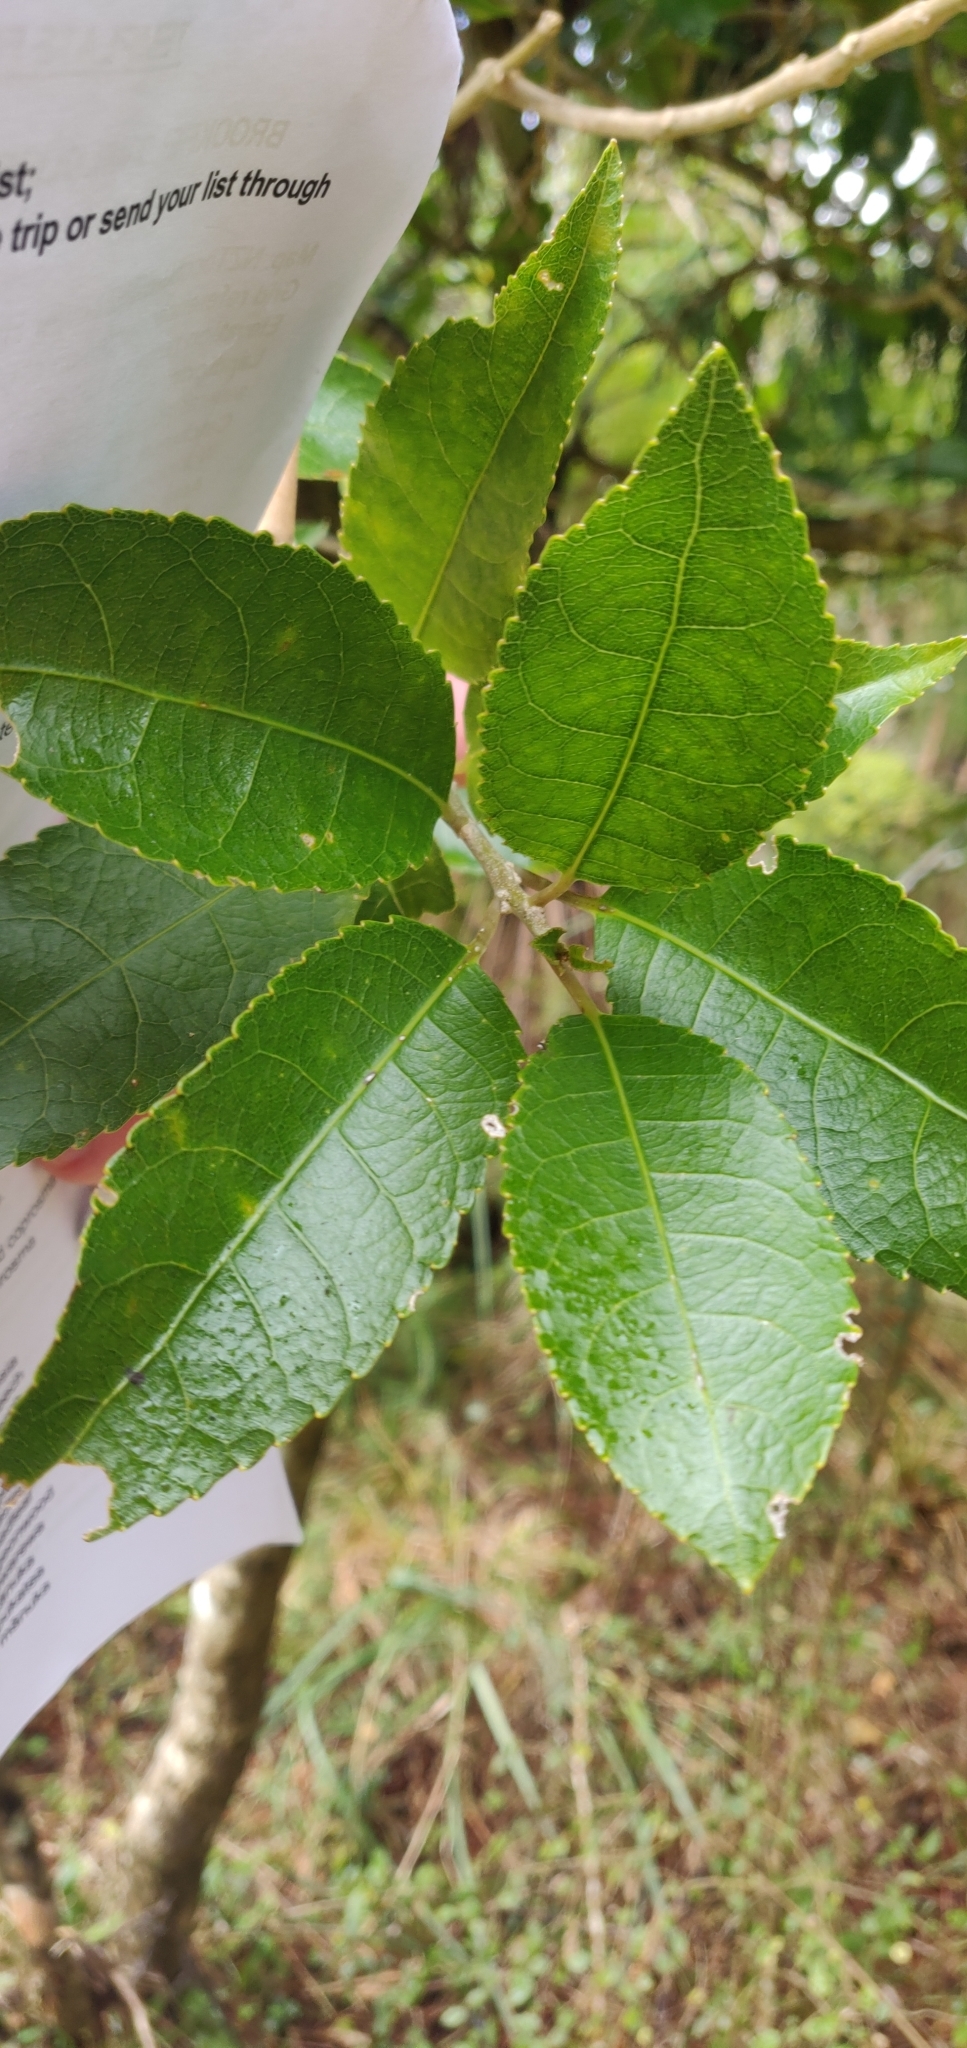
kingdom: Plantae
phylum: Tracheophyta
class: Magnoliopsida
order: Malpighiales
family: Violaceae
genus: Melicytus
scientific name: Melicytus ramiflorus
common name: Mahoe
